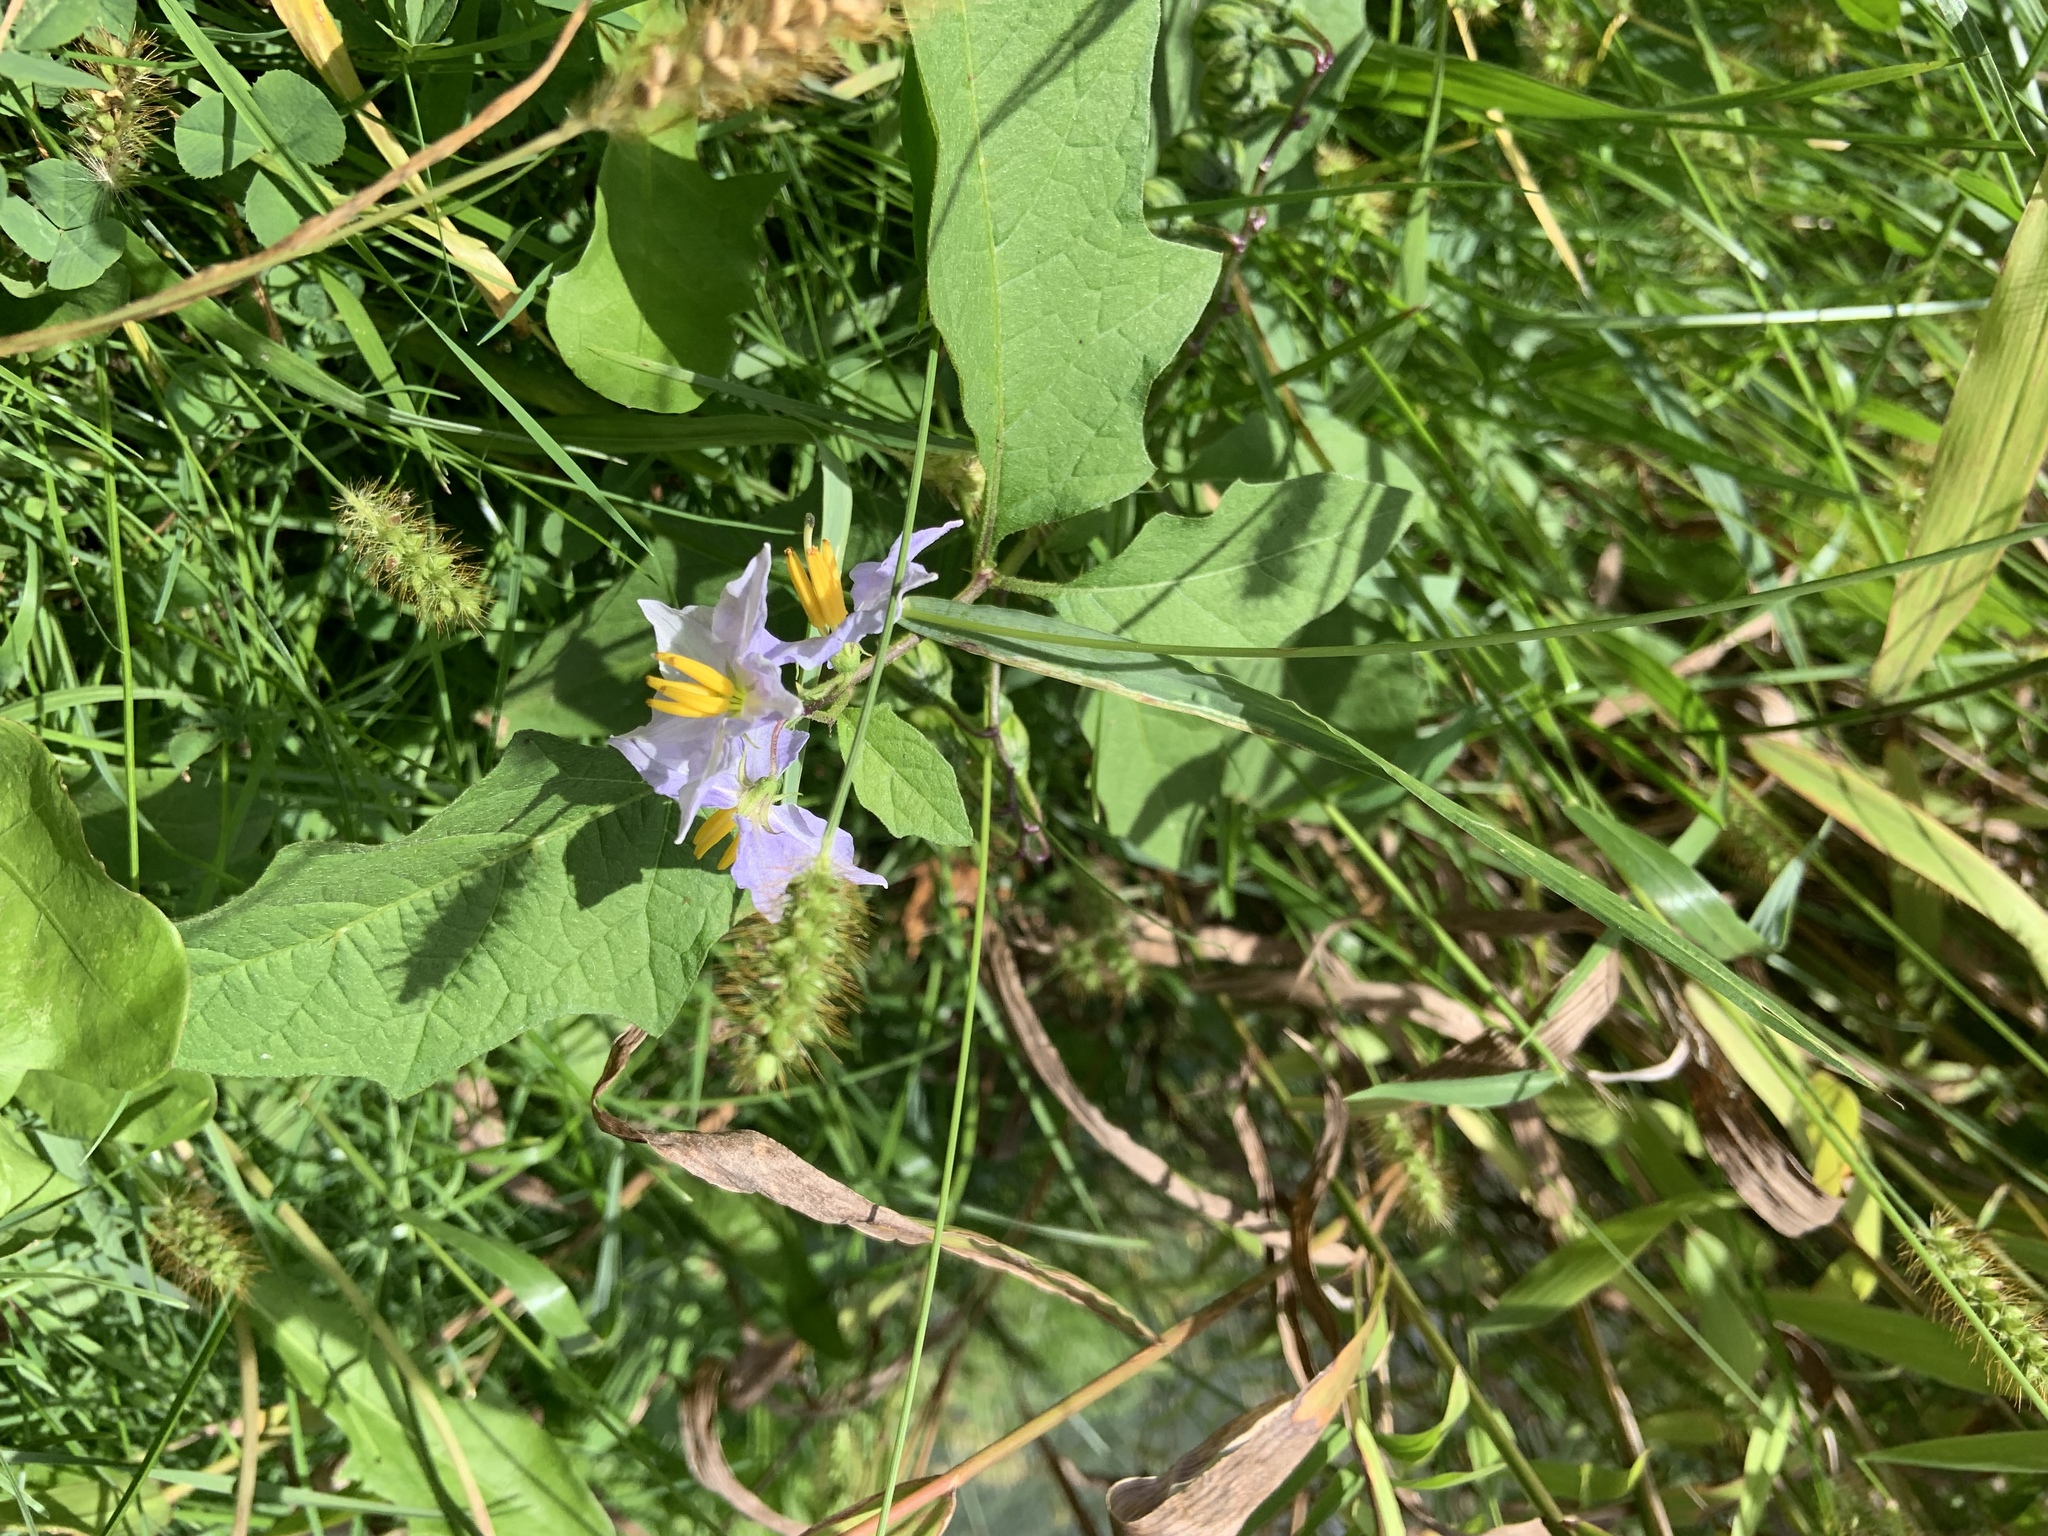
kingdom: Plantae
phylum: Tracheophyta
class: Magnoliopsida
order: Solanales
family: Solanaceae
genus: Solanum
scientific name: Solanum carolinense
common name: Horse-nettle
